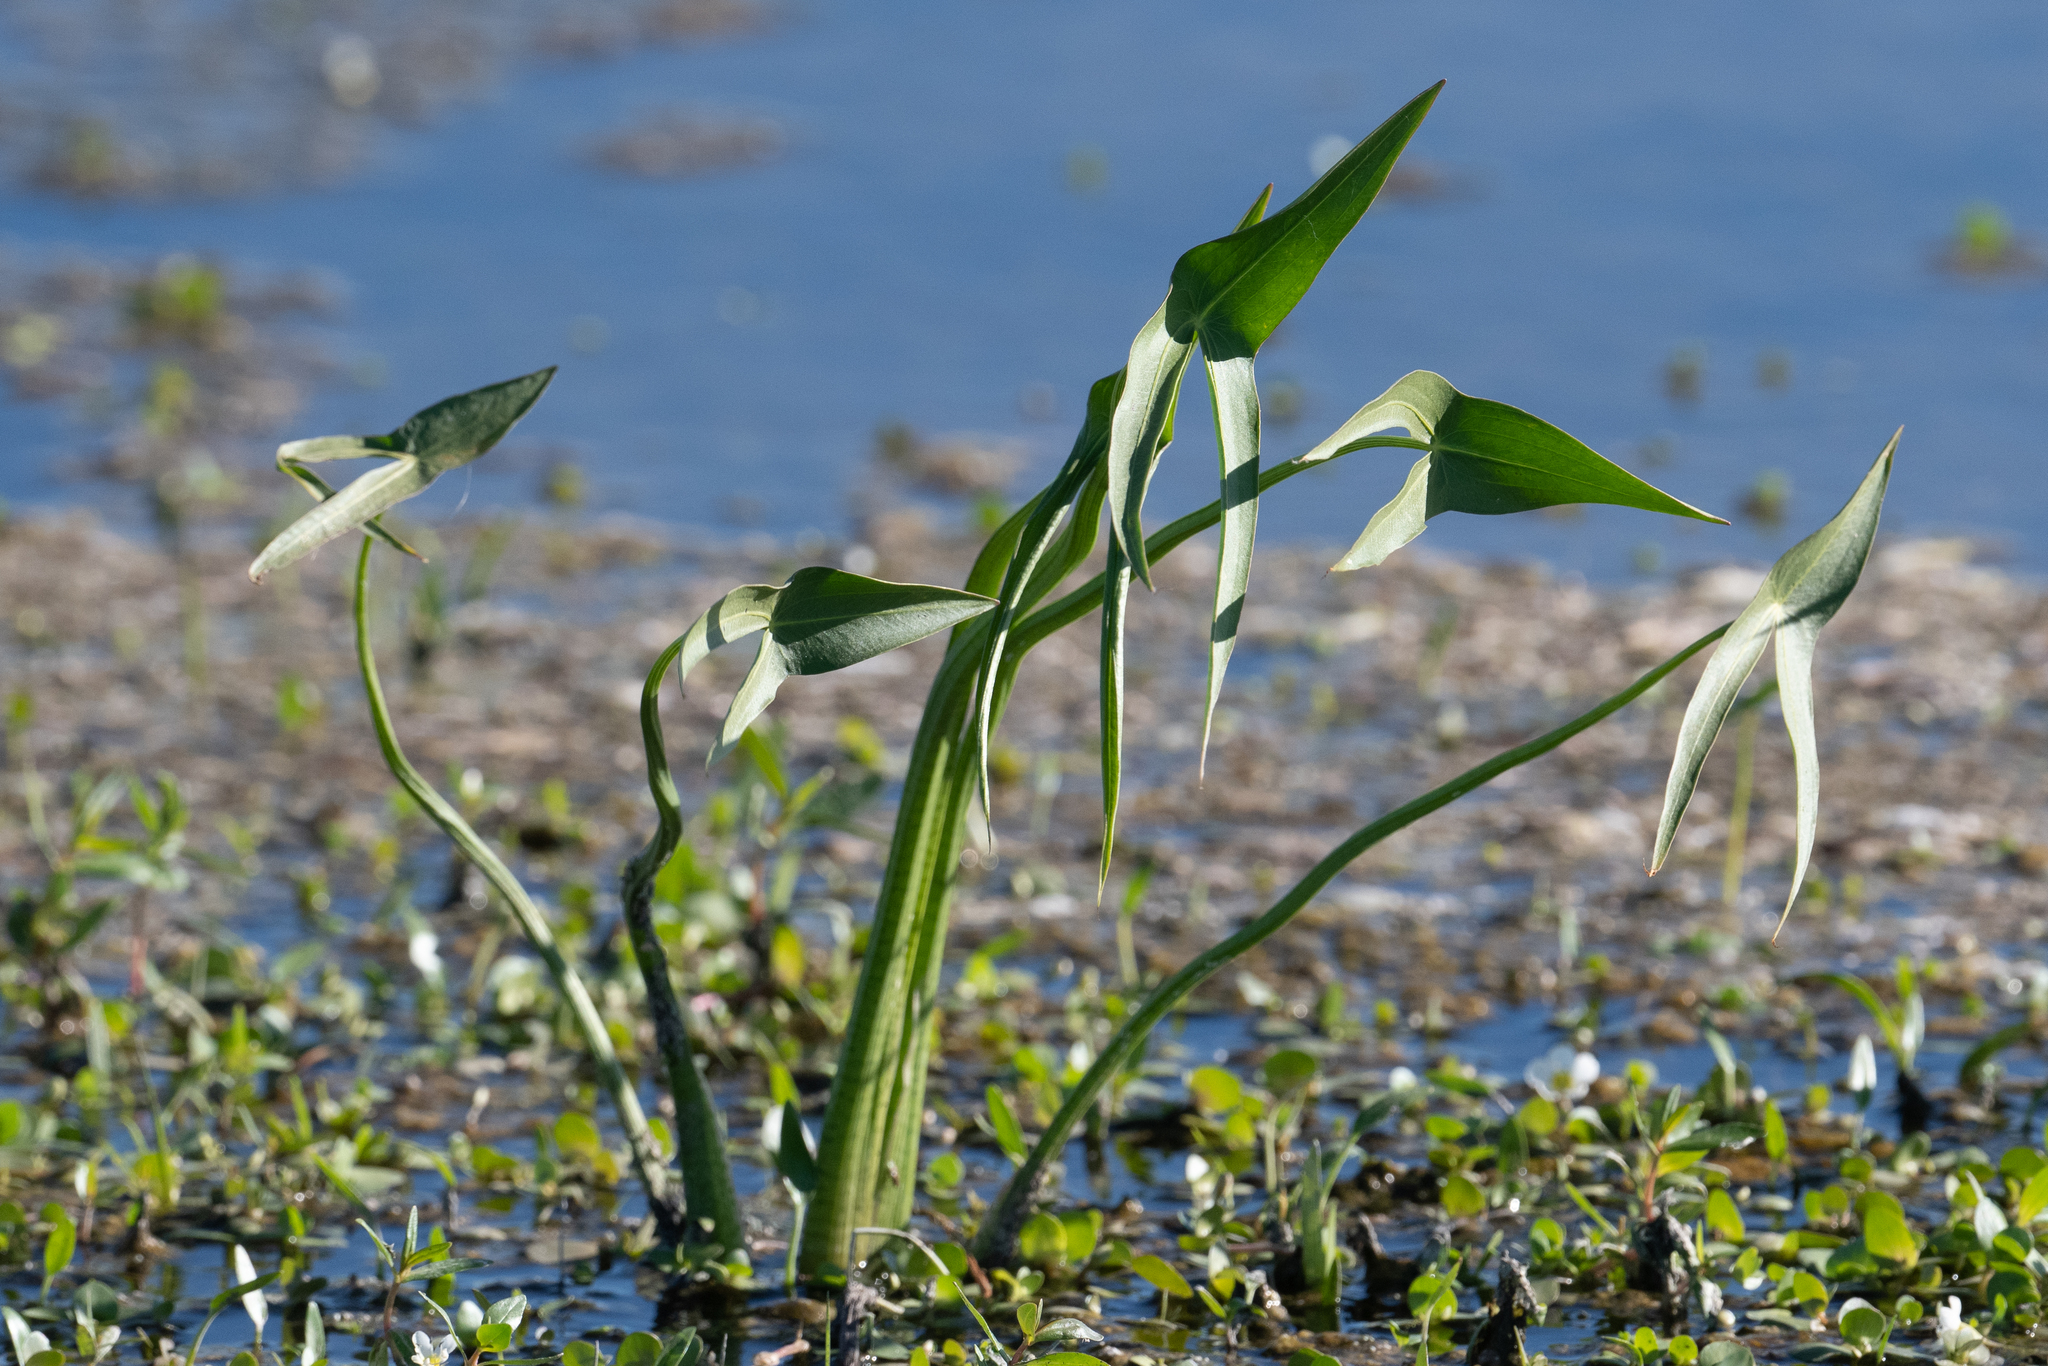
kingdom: Plantae
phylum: Tracheophyta
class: Liliopsida
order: Alismatales
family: Alismataceae
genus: Sagittaria
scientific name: Sagittaria longiloba
